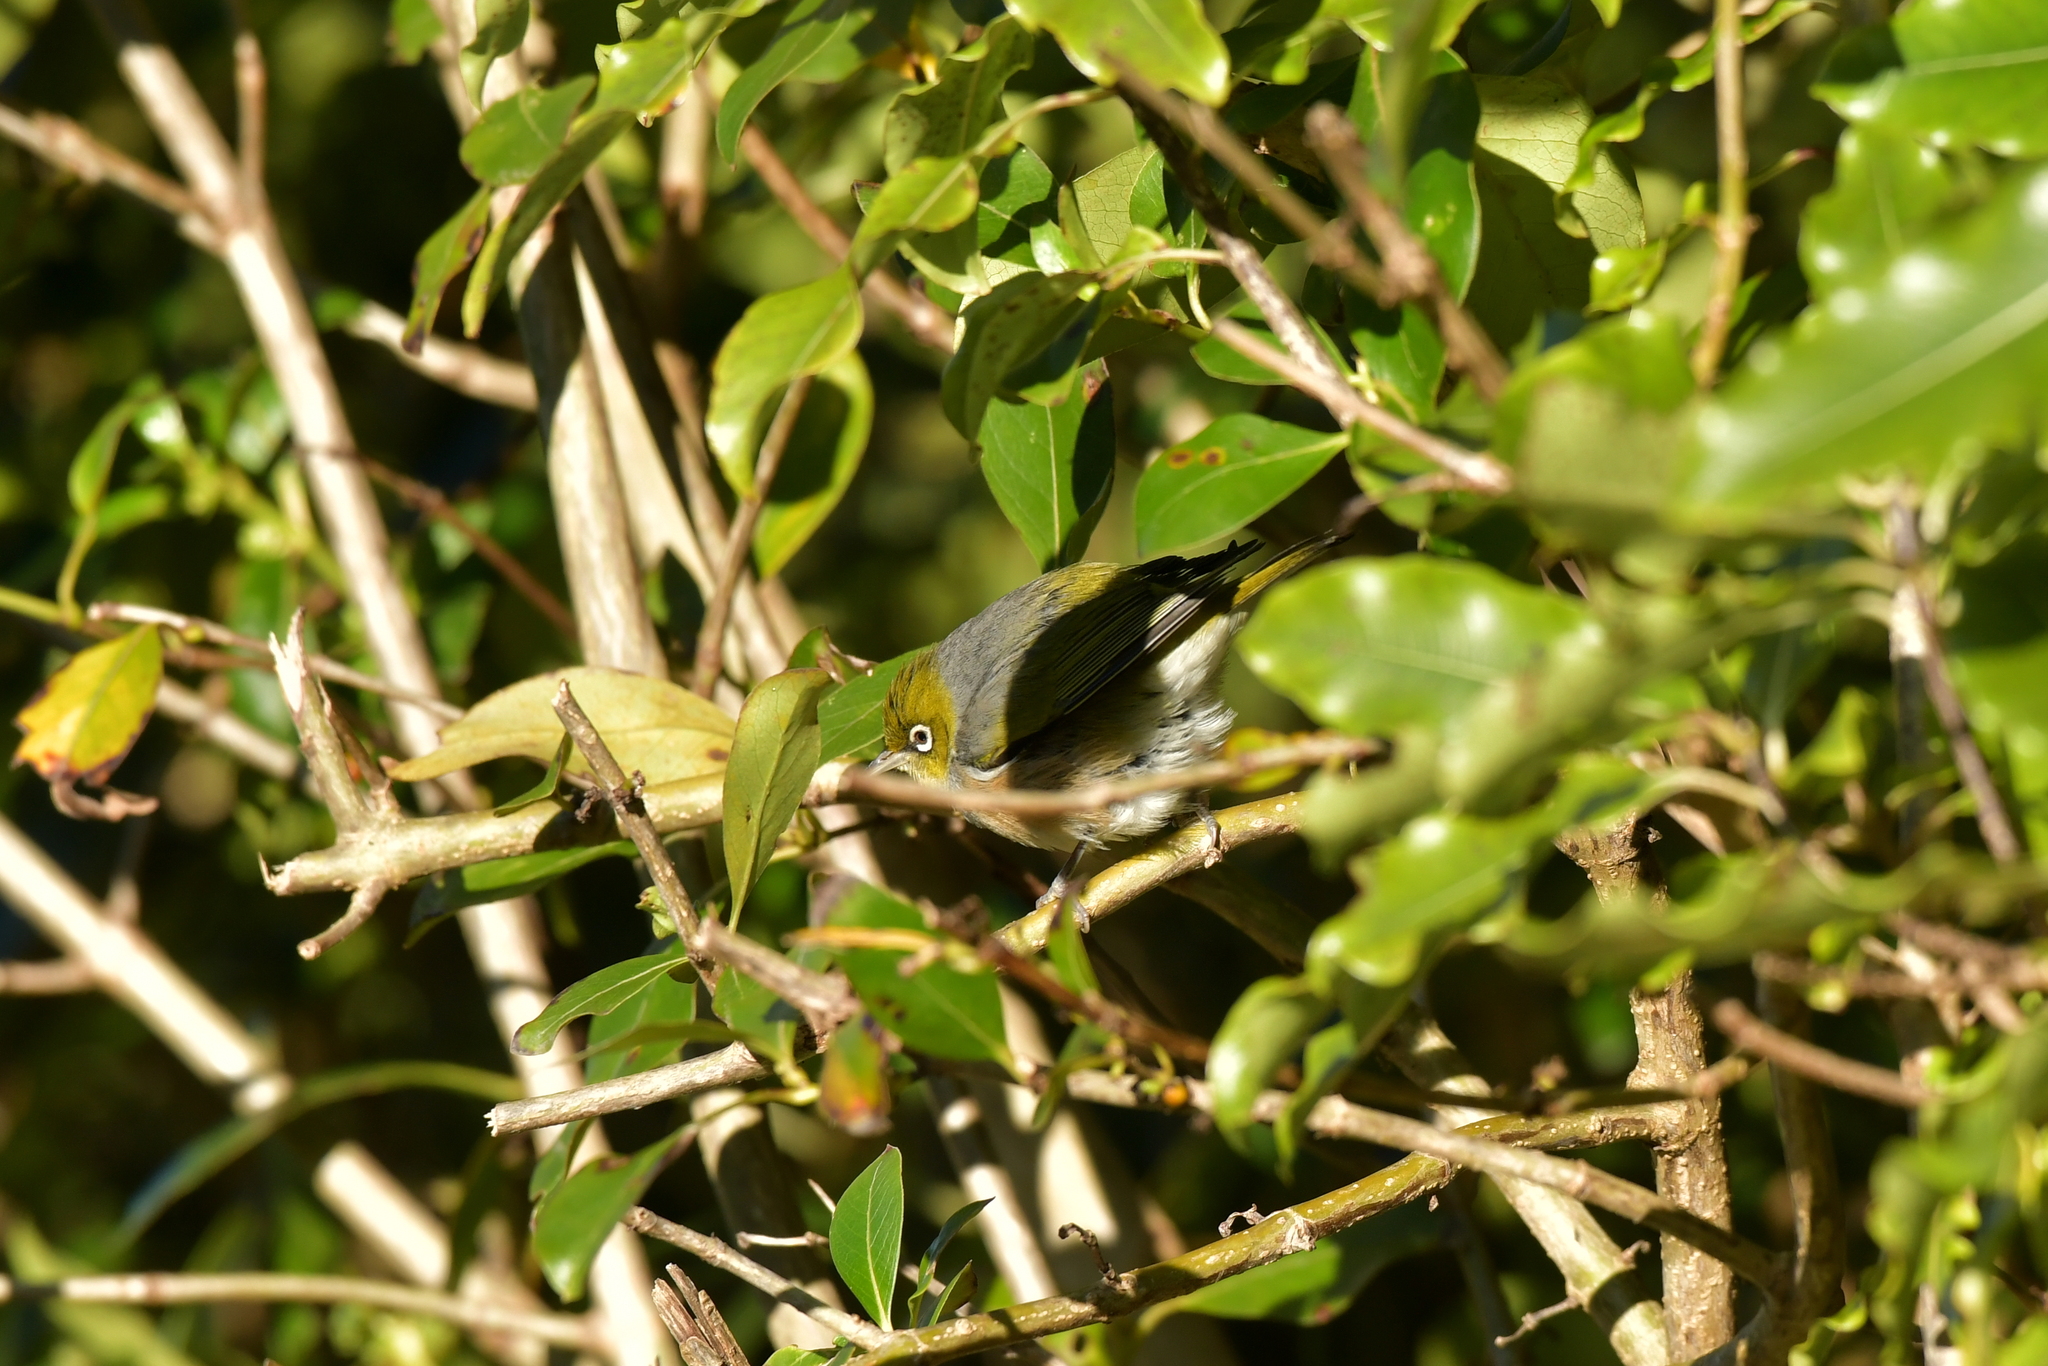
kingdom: Animalia
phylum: Chordata
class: Aves
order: Passeriformes
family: Zosteropidae
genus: Zosterops
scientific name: Zosterops lateralis
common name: Silvereye
